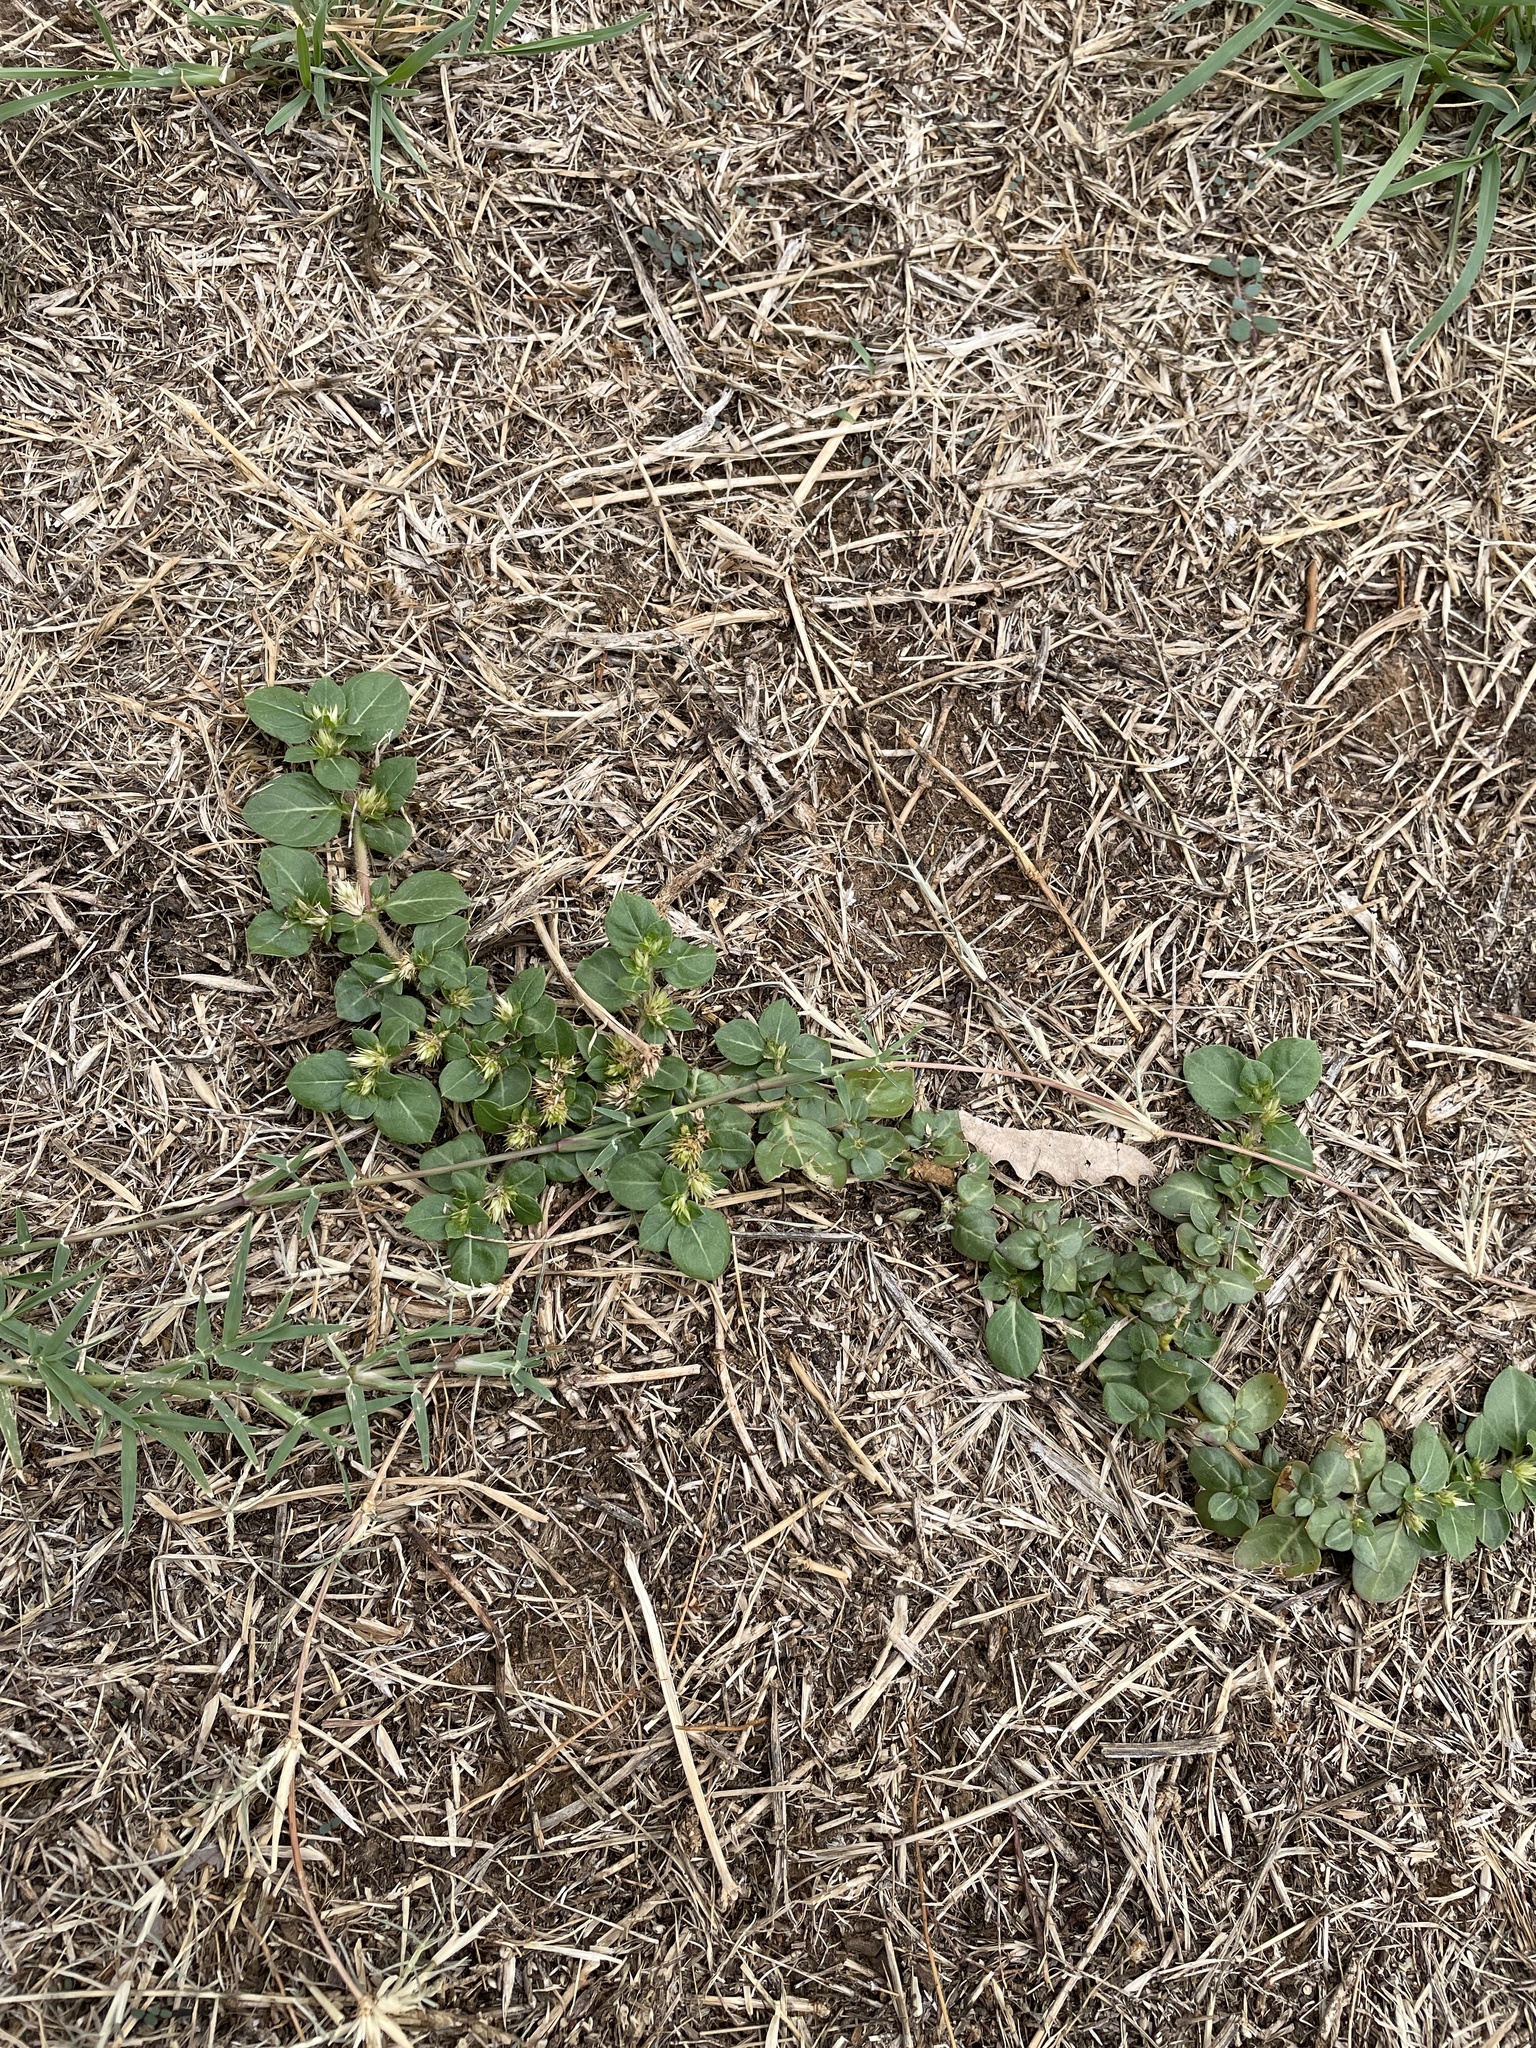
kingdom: Plantae
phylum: Tracheophyta
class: Magnoliopsida
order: Caryophyllales
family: Amaranthaceae
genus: Alternanthera
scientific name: Alternanthera pungens
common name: Khakiweed
